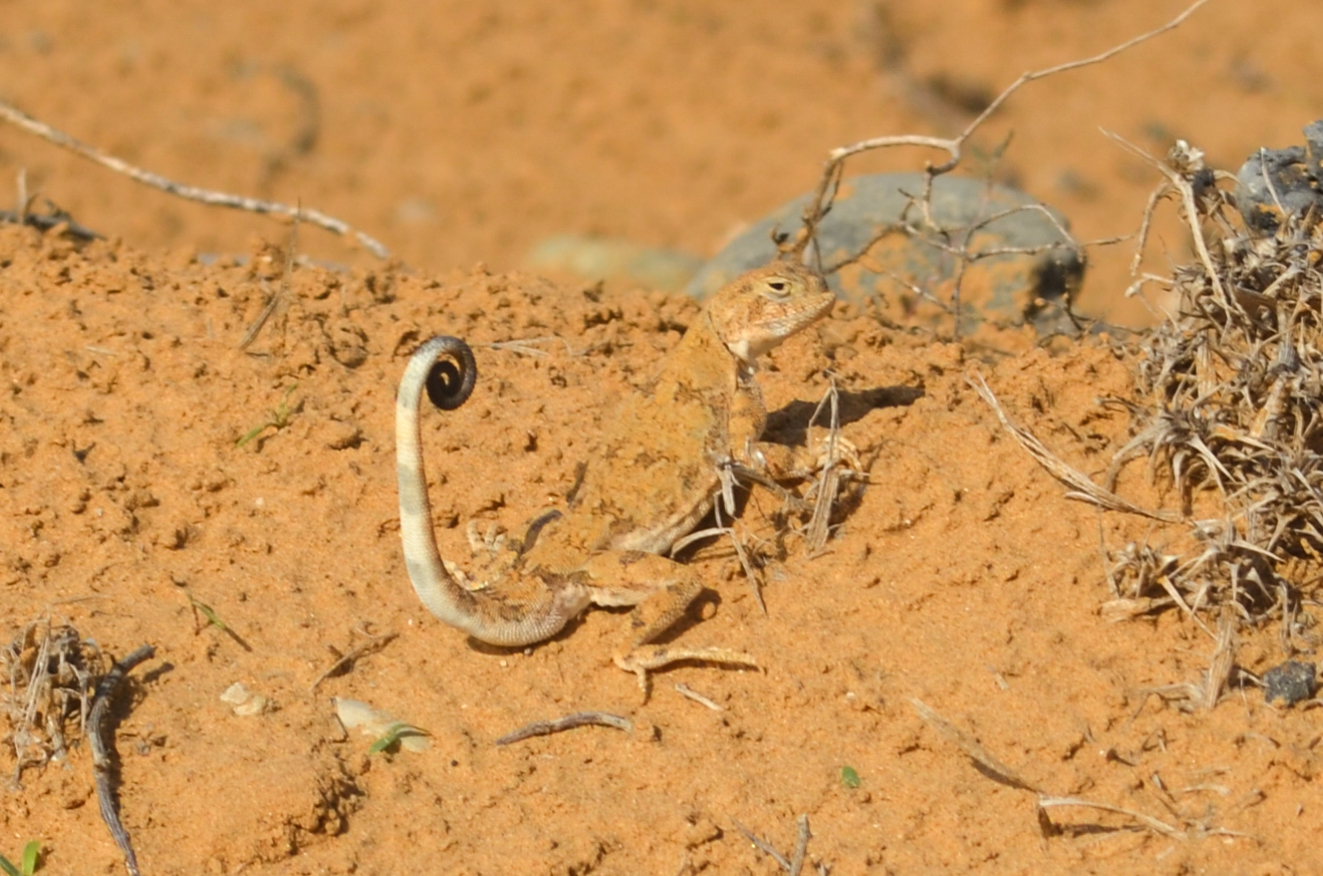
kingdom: Animalia
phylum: Chordata
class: Squamata
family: Agamidae
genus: Phrynocephalus
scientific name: Phrynocephalus guttatus
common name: Spotted toadhead agama
